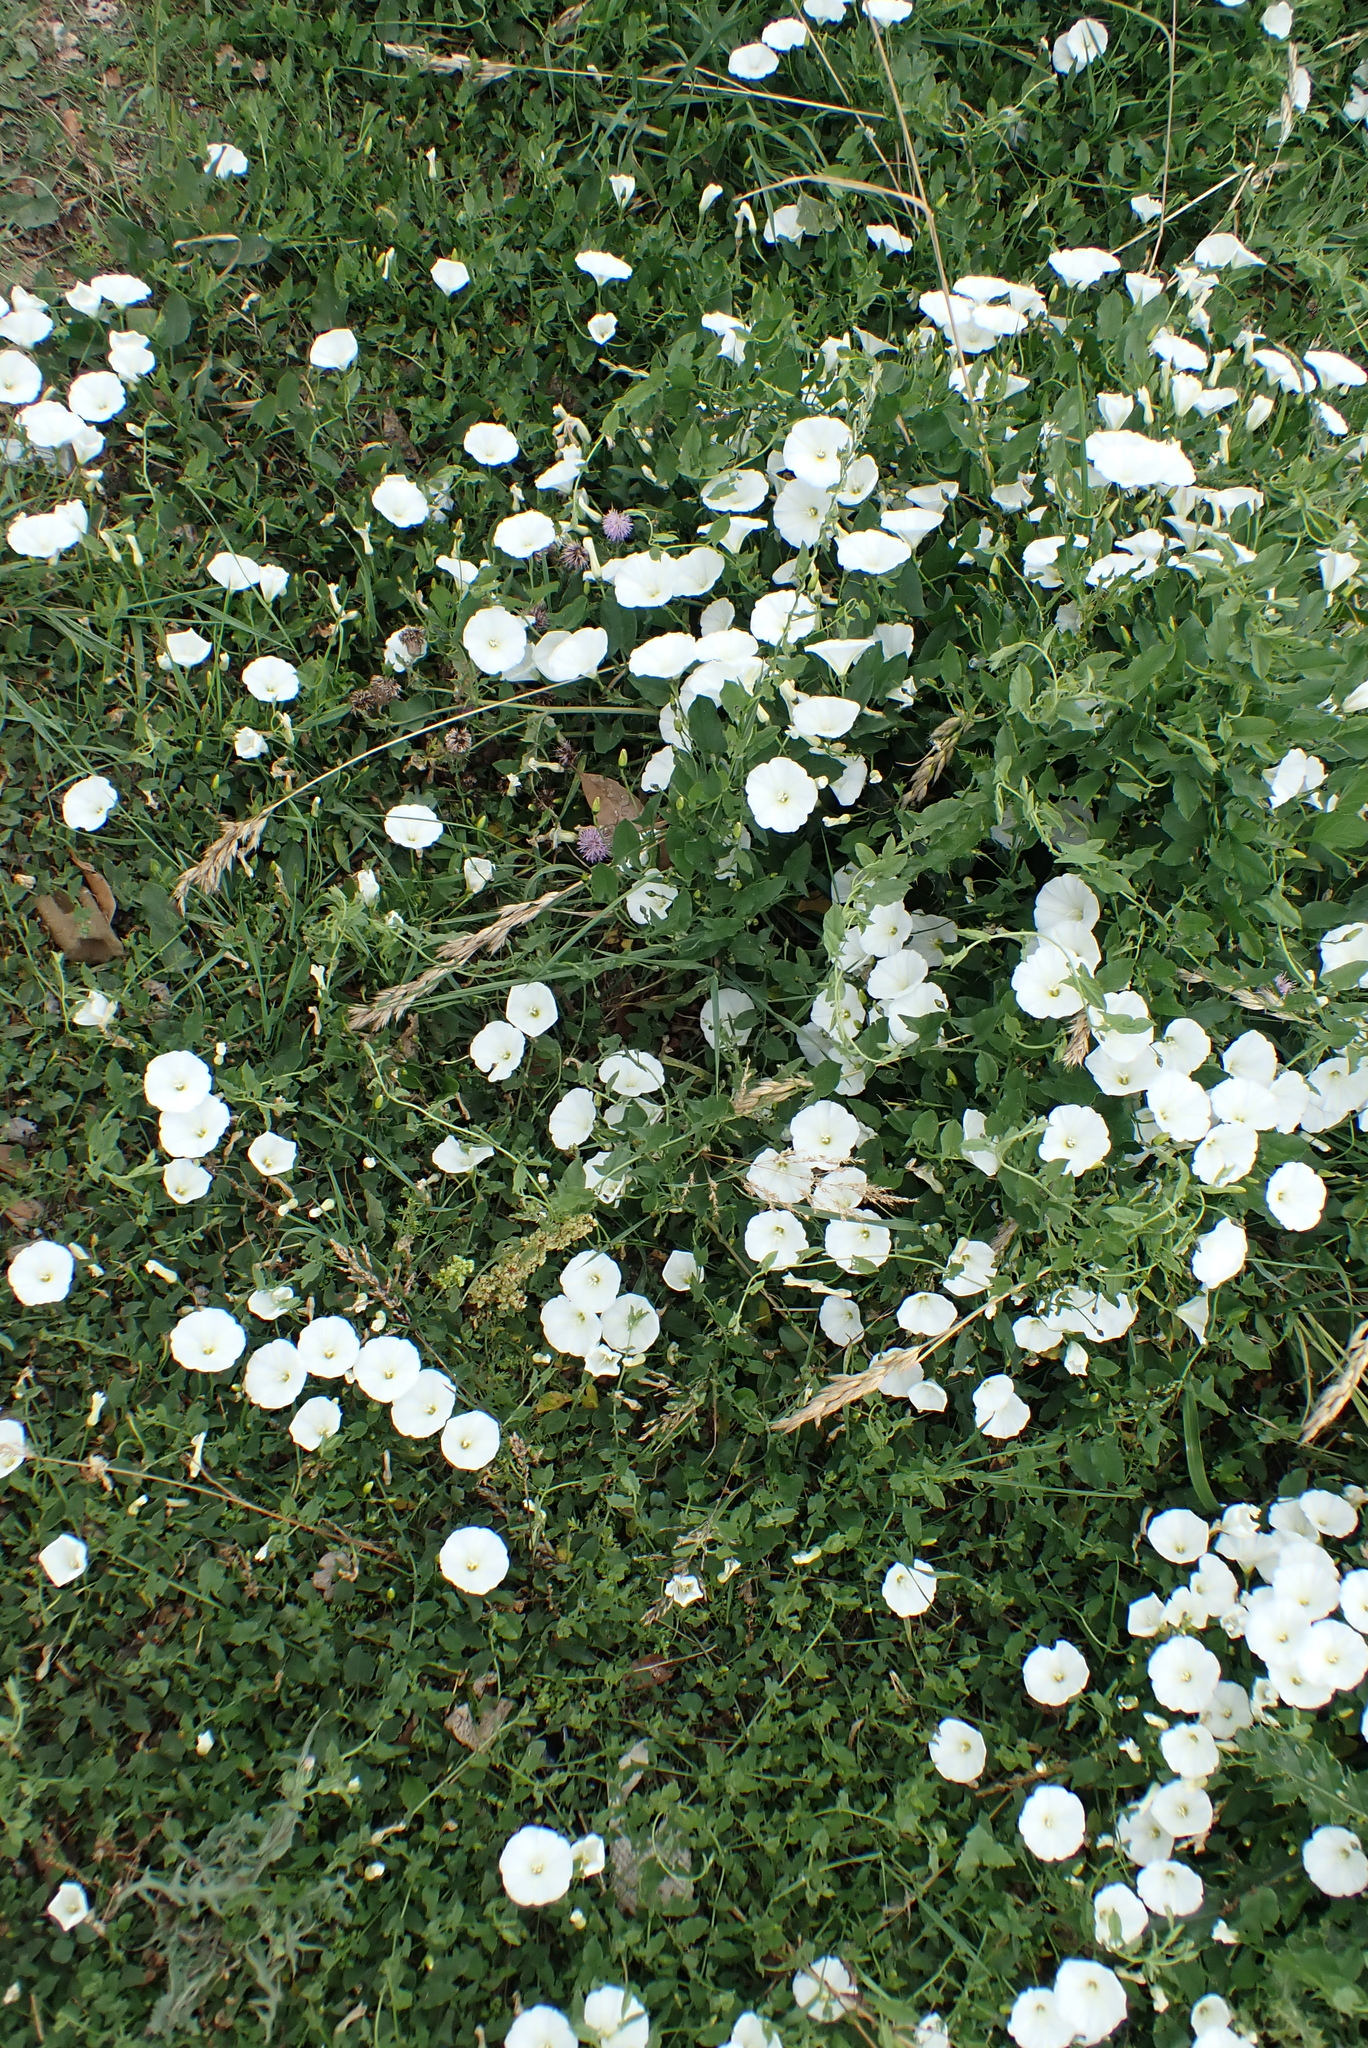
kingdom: Plantae
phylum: Tracheophyta
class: Magnoliopsida
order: Solanales
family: Convolvulaceae
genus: Convolvulus
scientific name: Convolvulus arvensis
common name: Field bindweed
